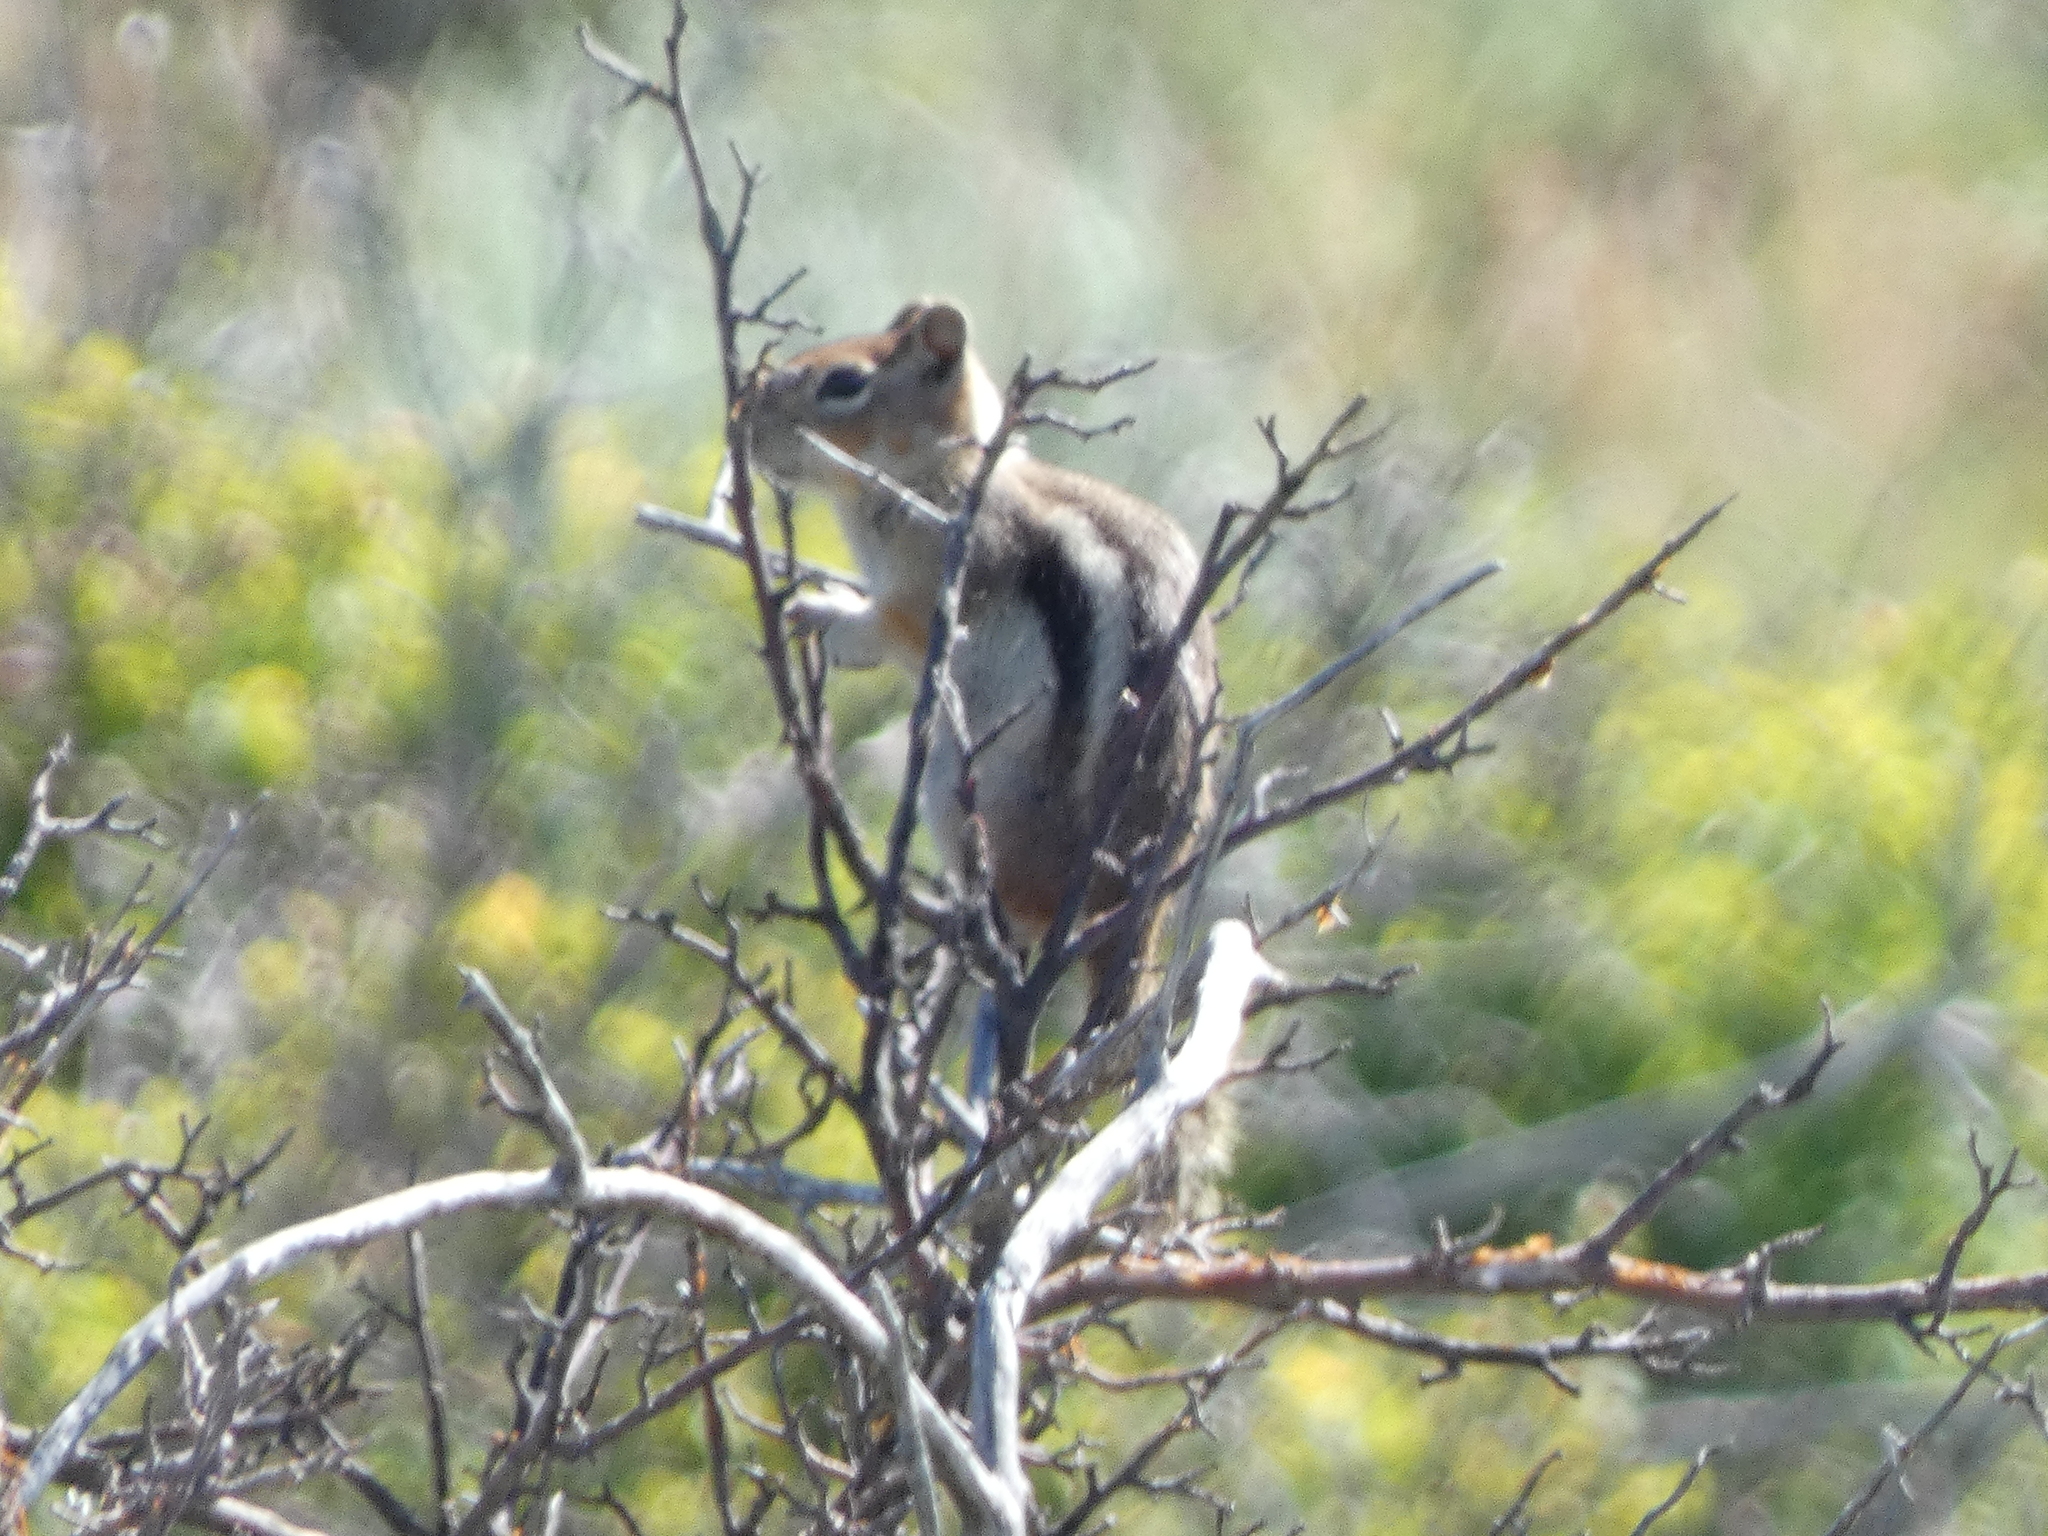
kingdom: Animalia
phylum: Chordata
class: Mammalia
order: Rodentia
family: Sciuridae
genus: Callospermophilus
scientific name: Callospermophilus lateralis
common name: Golden-mantled ground squirrel
